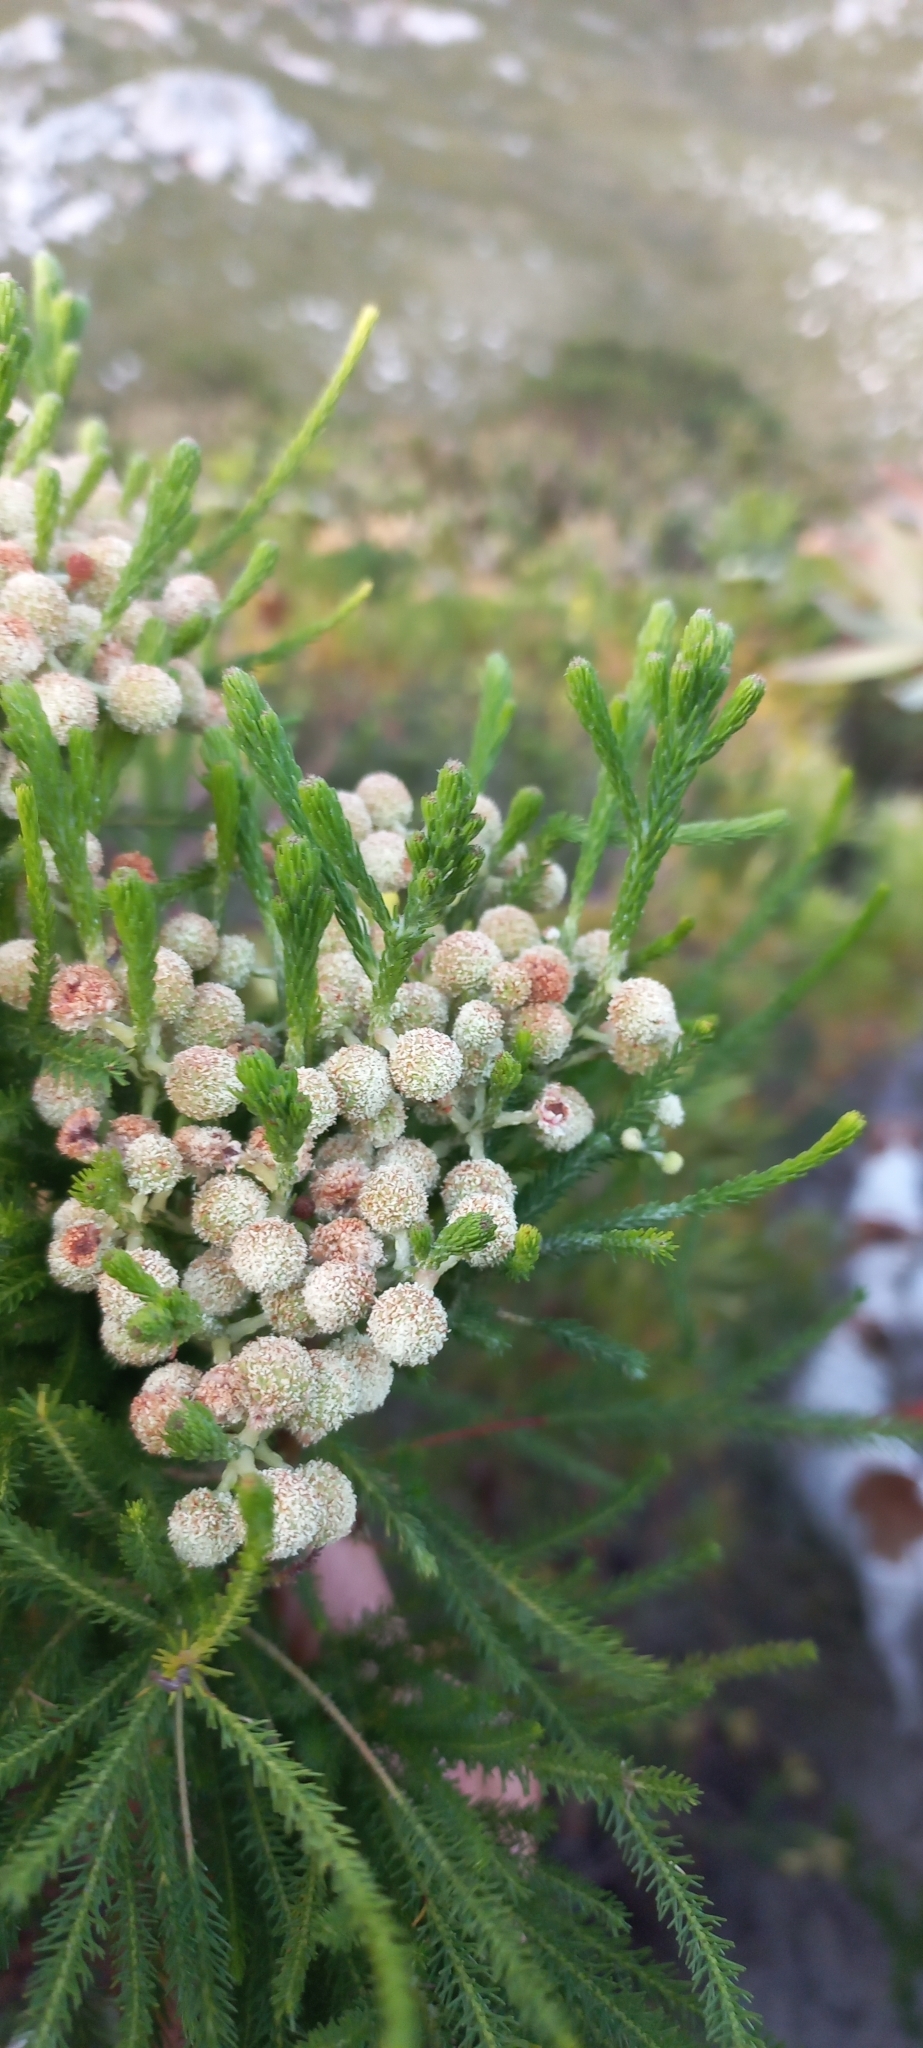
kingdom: Plantae
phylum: Tracheophyta
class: Magnoliopsida
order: Bruniales
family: Bruniaceae
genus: Berzelia
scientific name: Berzelia lanuginosa
